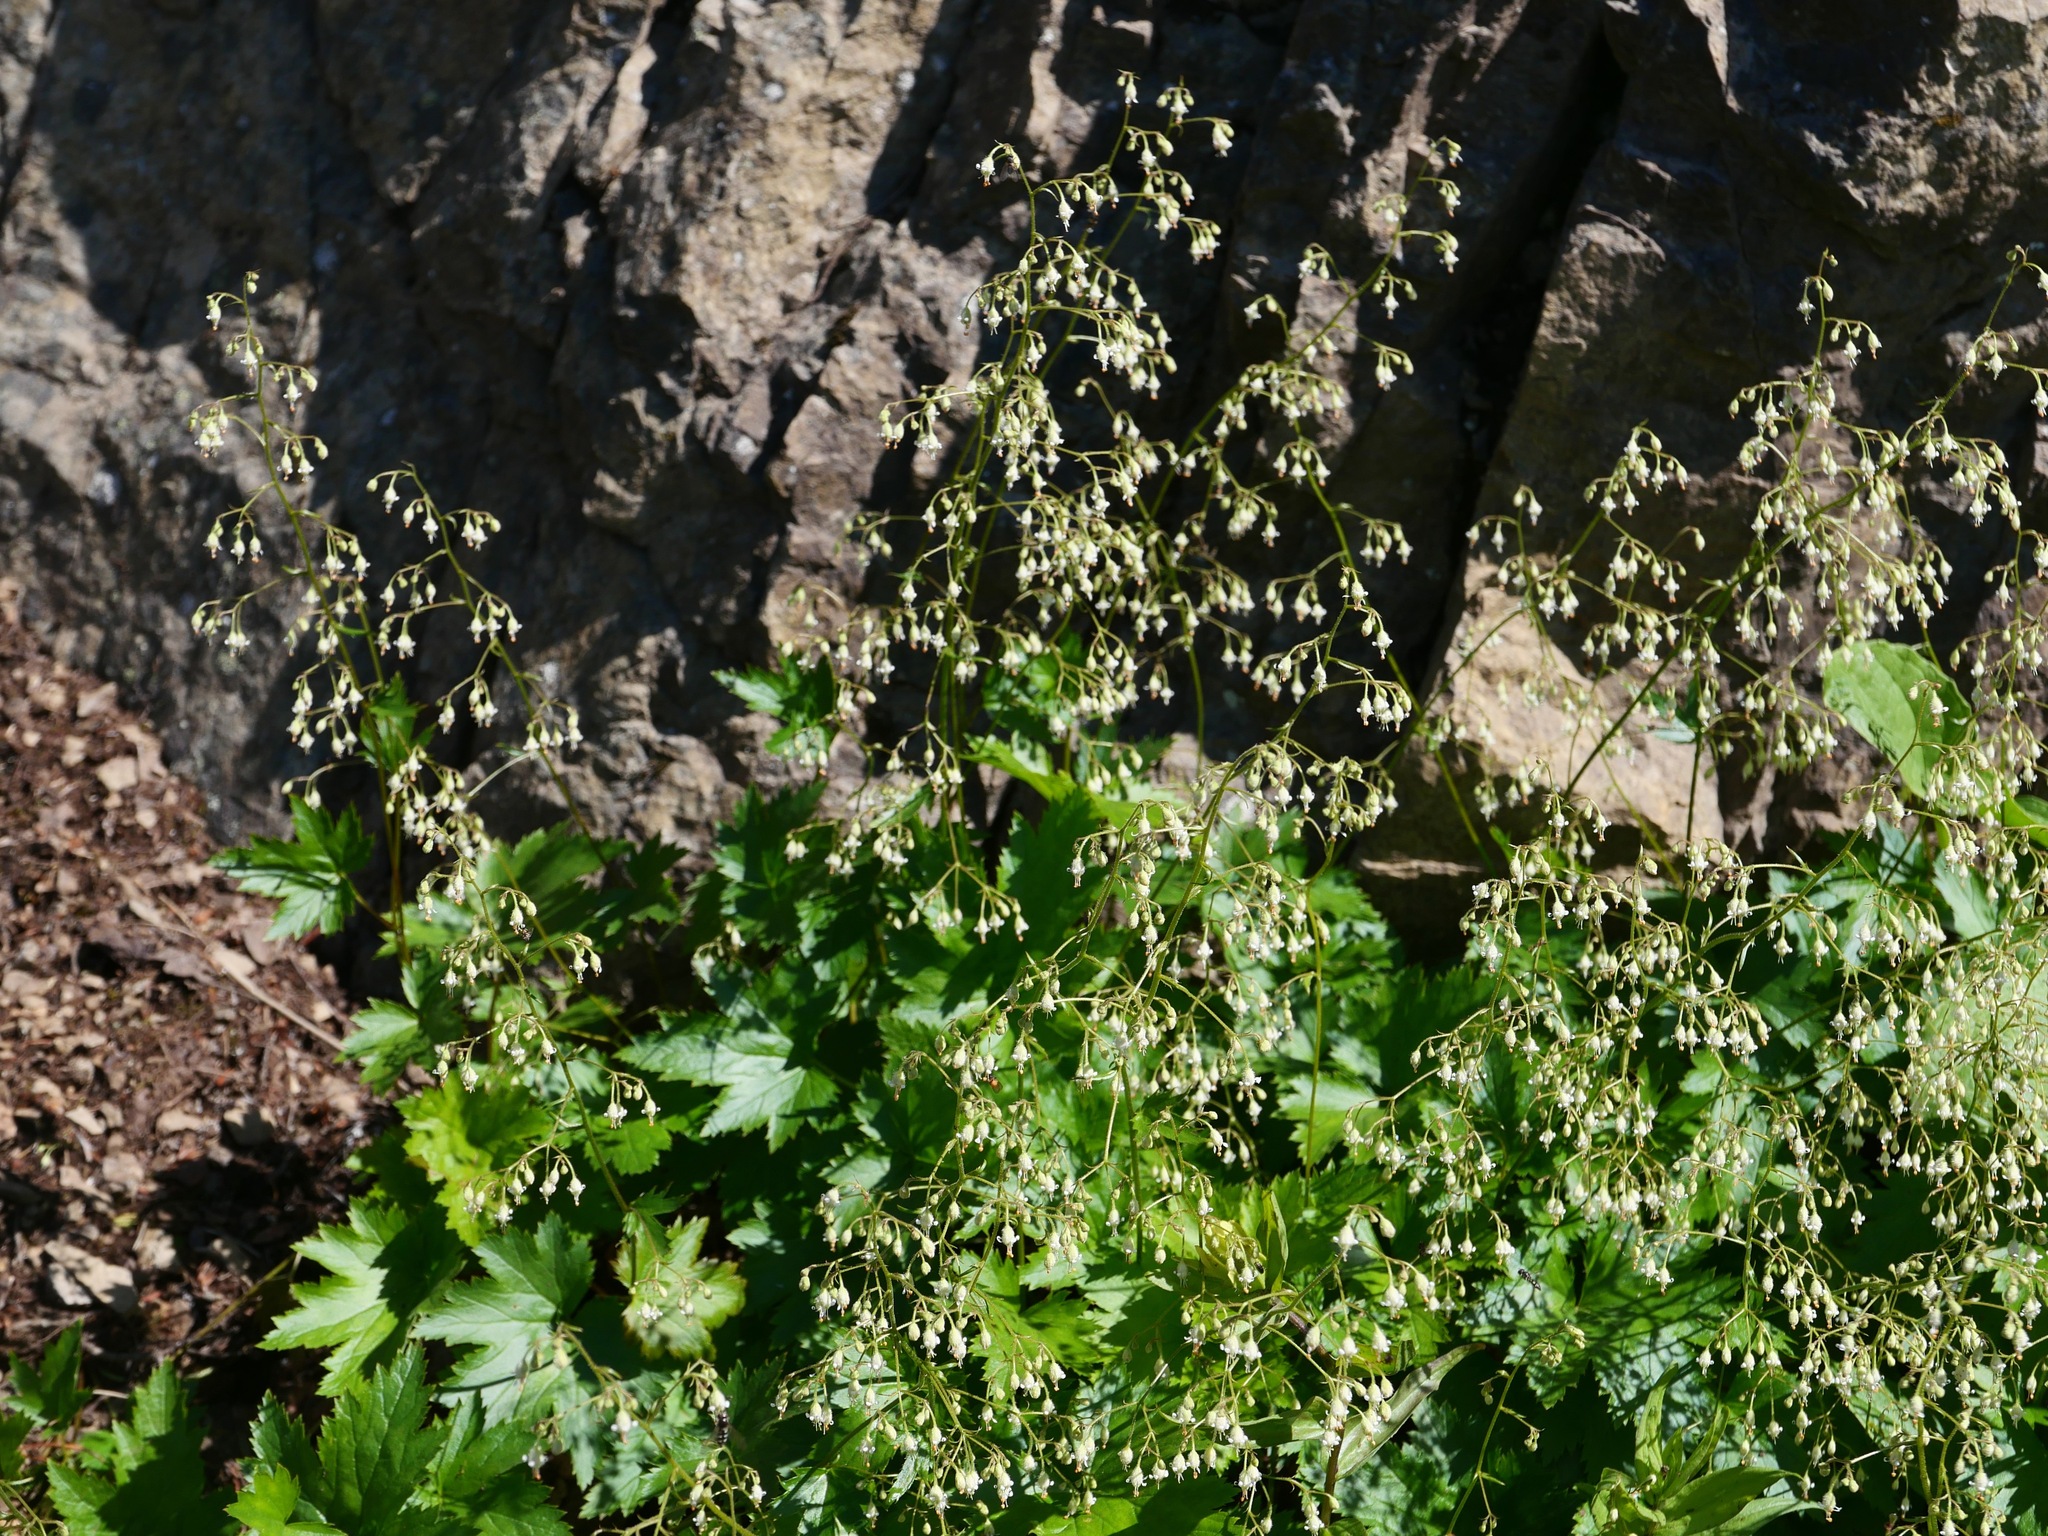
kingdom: Plantae
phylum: Tracheophyta
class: Magnoliopsida
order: Saxifragales
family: Saxifragaceae
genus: Heuchera
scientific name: Heuchera glabra
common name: Alpine alumroot
